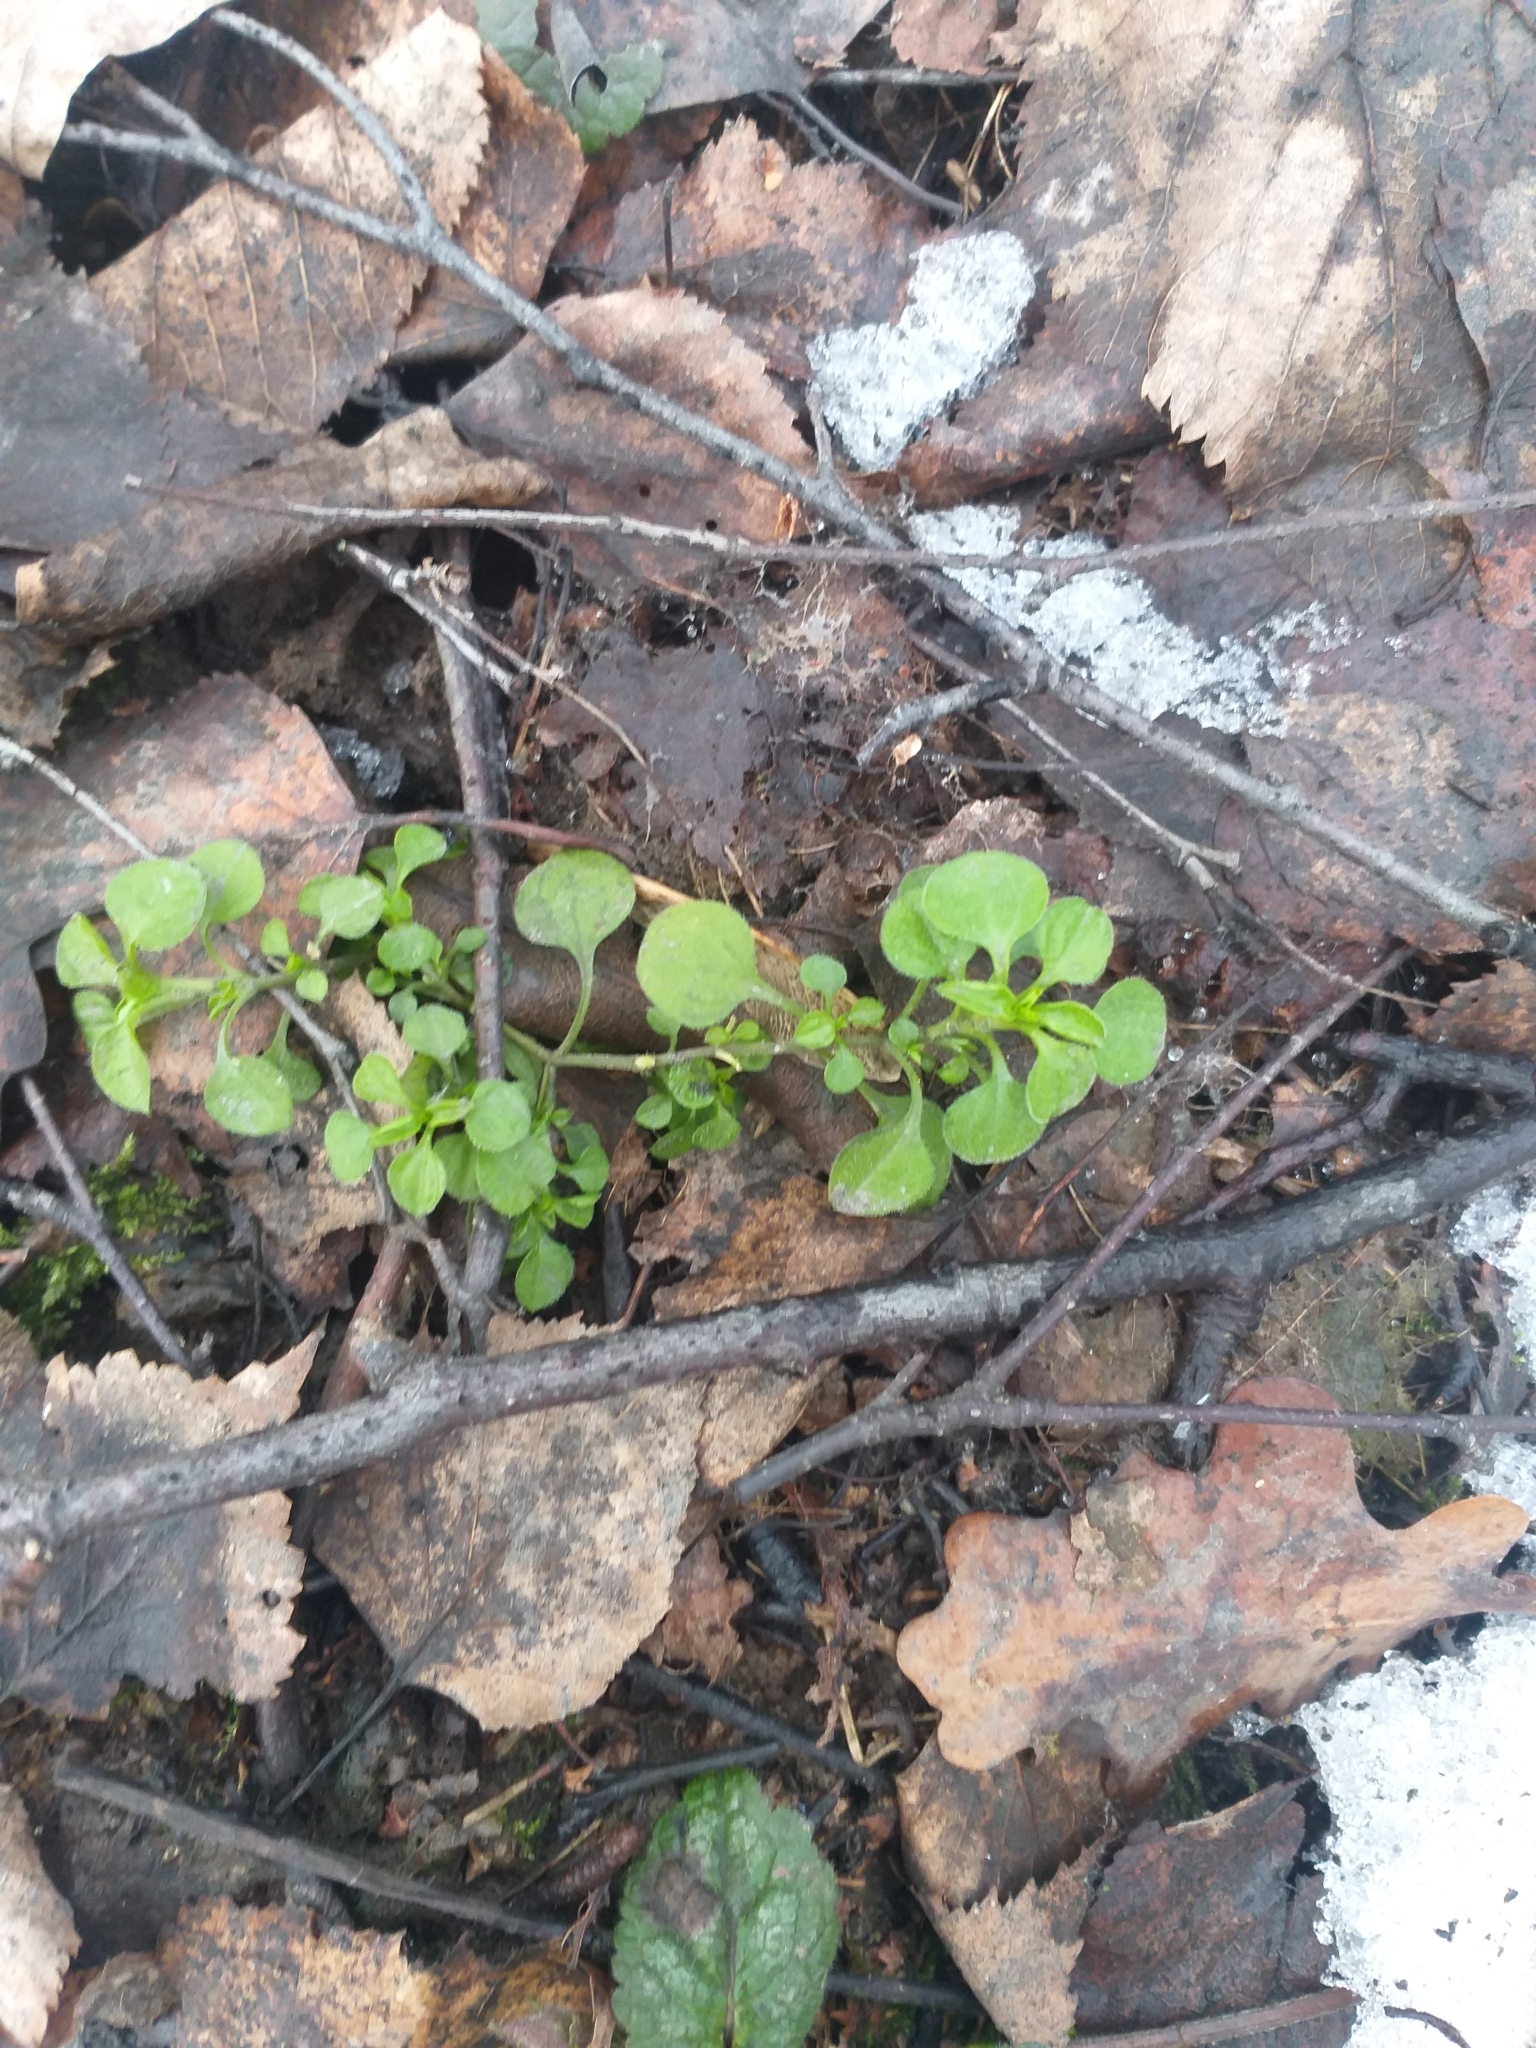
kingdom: Plantae
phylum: Tracheophyta
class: Magnoliopsida
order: Caryophyllales
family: Caryophyllaceae
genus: Moehringia
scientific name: Moehringia trinervia
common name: Three-nerved sandwort
